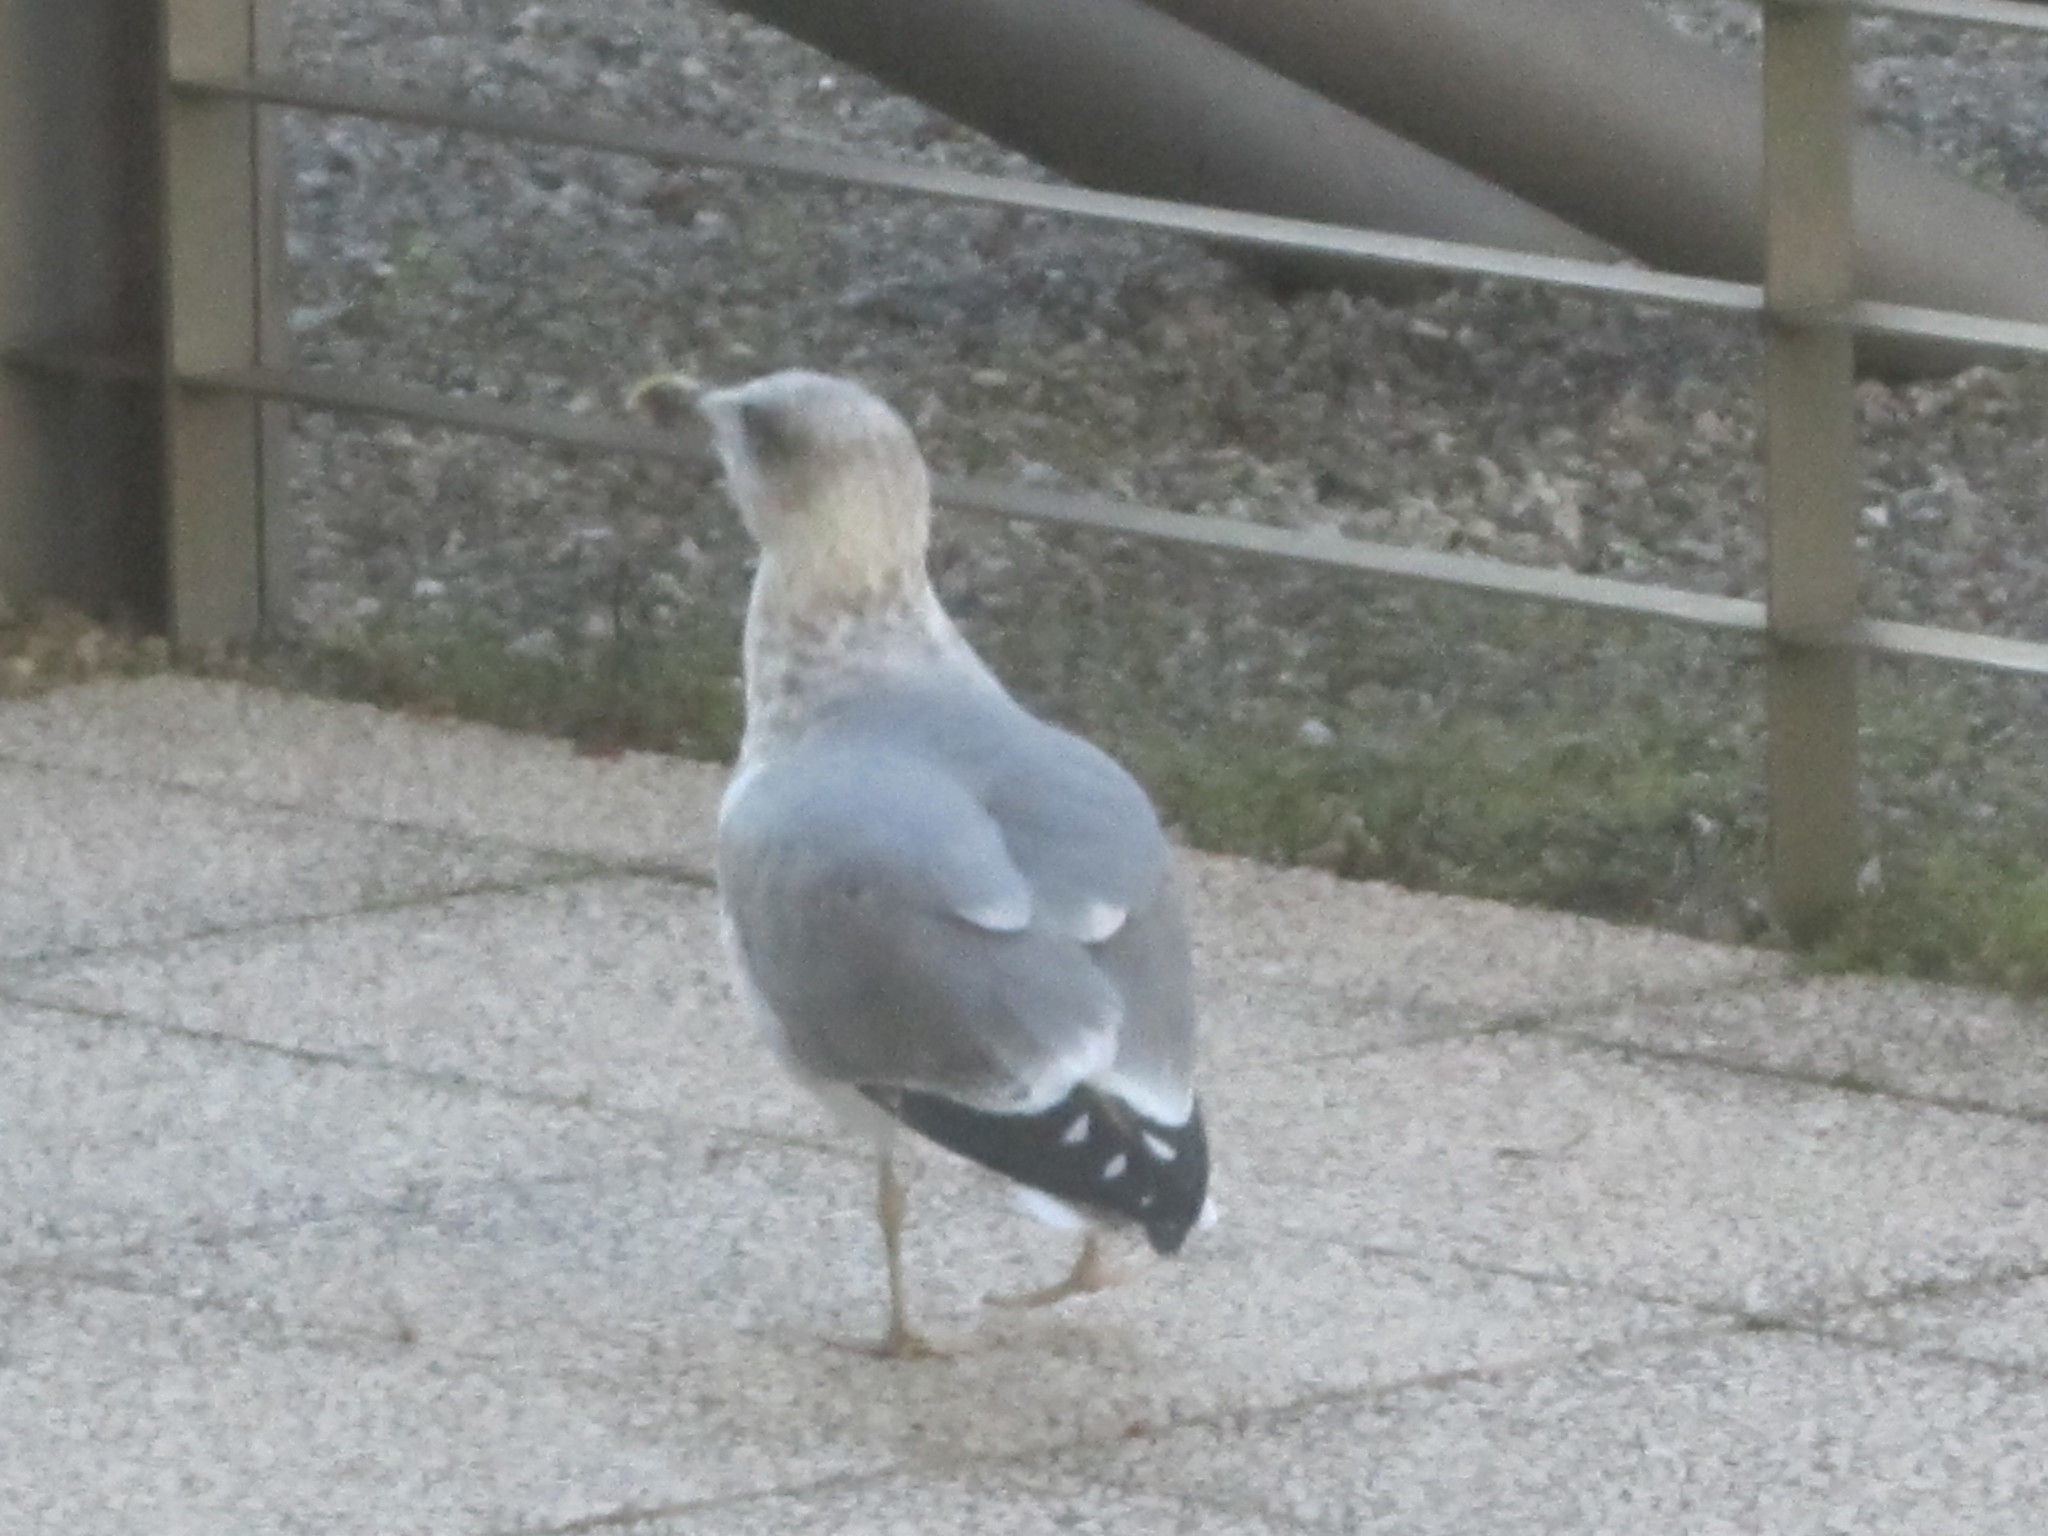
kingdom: Animalia
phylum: Chordata
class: Aves
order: Charadriiformes
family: Laridae
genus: Larus
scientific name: Larus michahellis
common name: Yellow-legged gull
